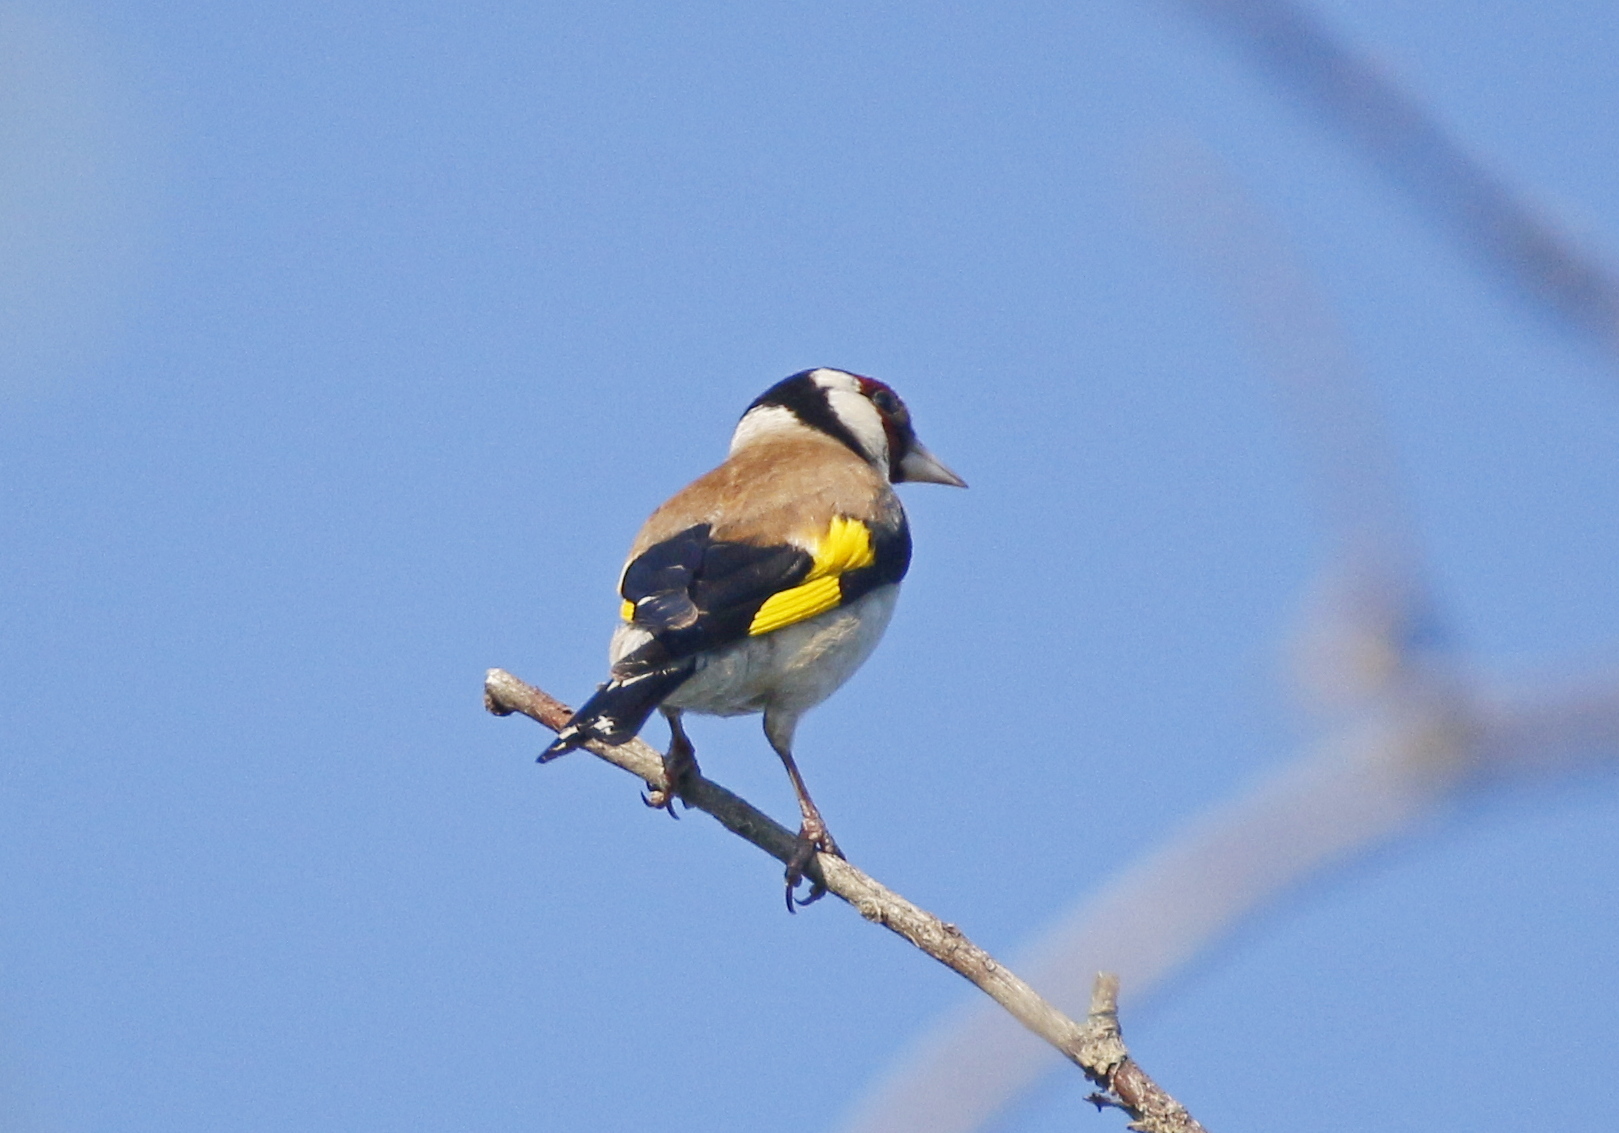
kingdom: Animalia
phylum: Chordata
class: Aves
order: Passeriformes
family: Fringillidae
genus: Carduelis
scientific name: Carduelis carduelis
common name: European goldfinch
